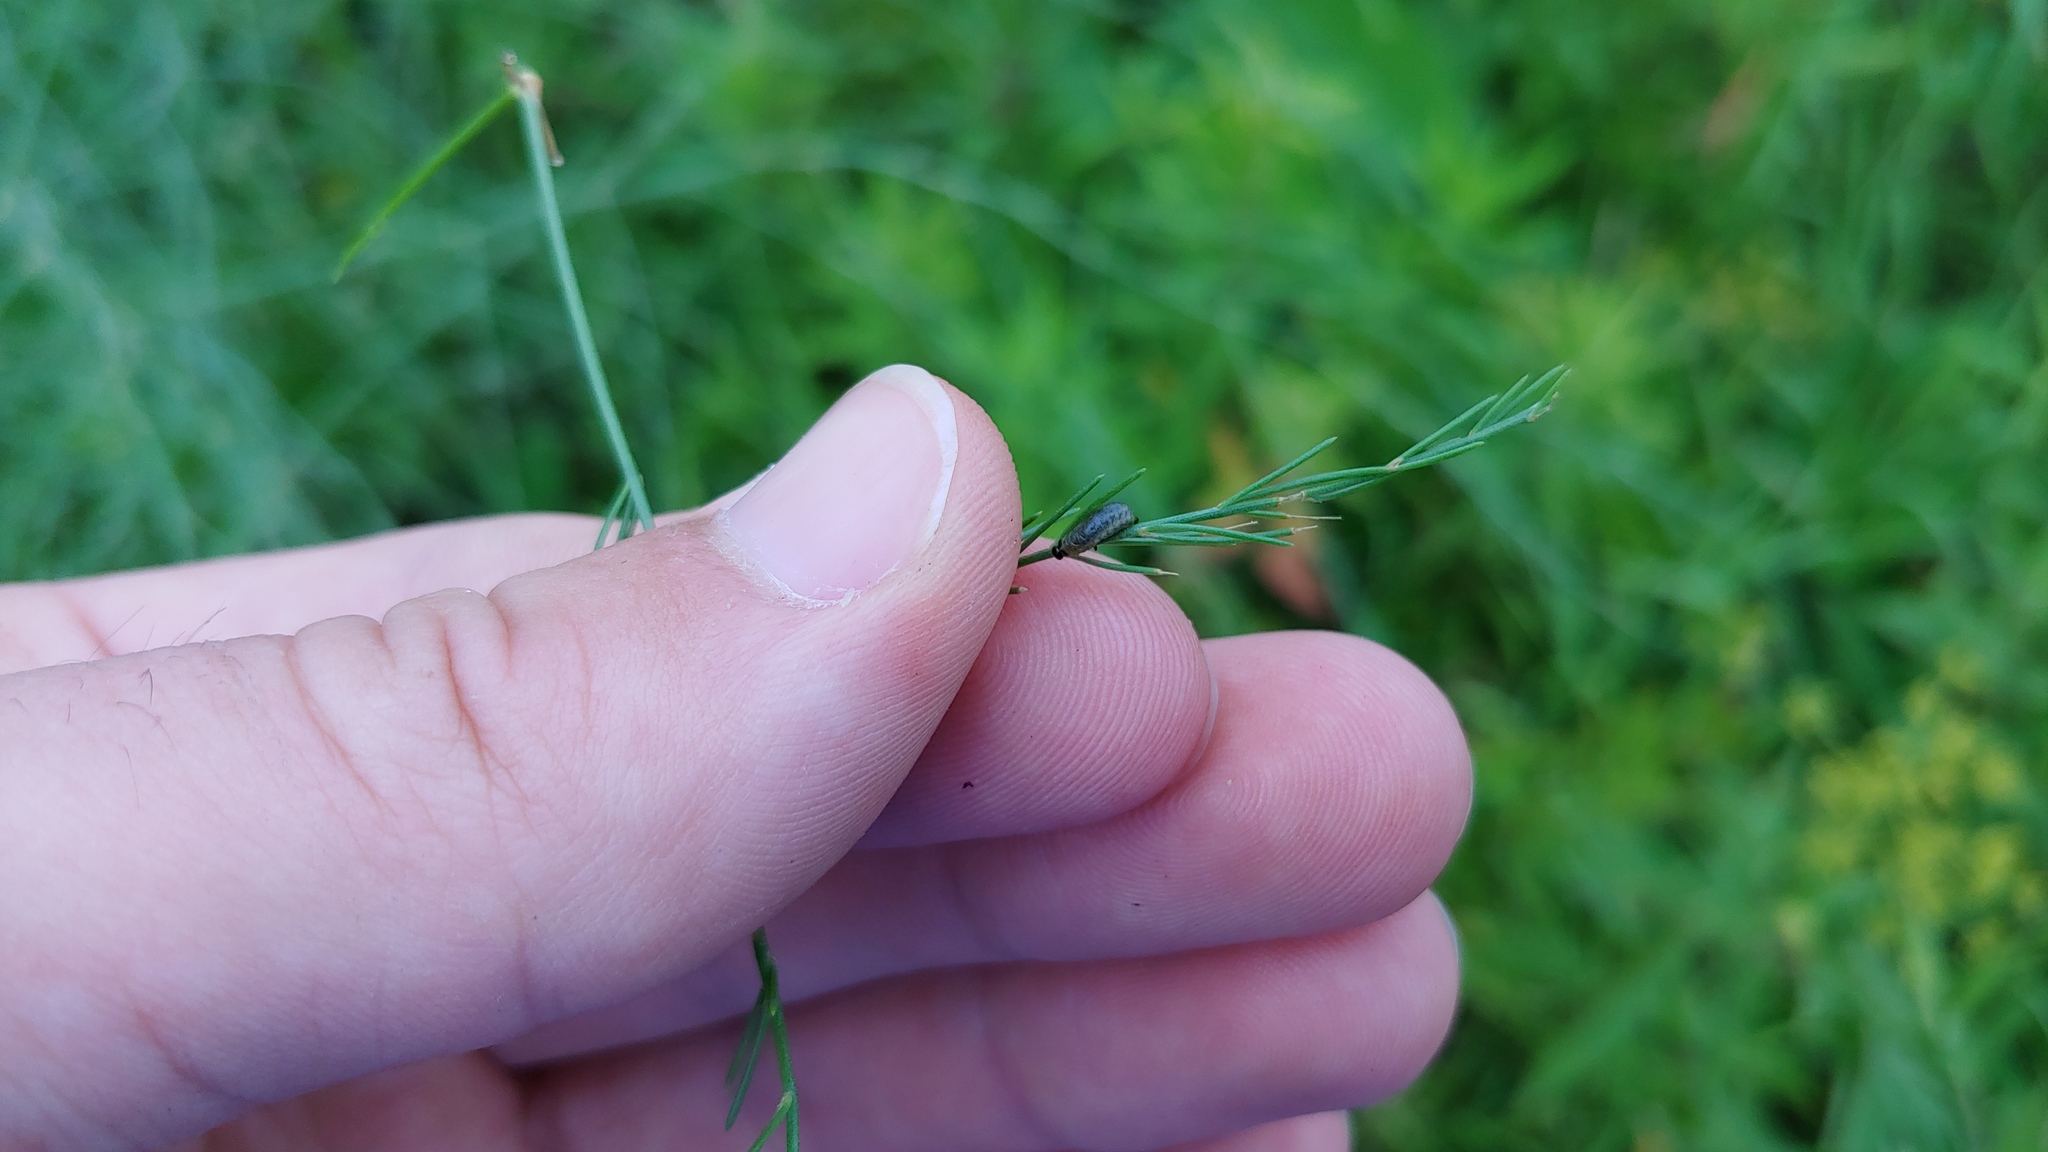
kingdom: Animalia
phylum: Arthropoda
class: Insecta
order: Coleoptera
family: Chrysomelidae
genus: Crioceris
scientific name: Crioceris asparagi
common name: Asparagus beetle
